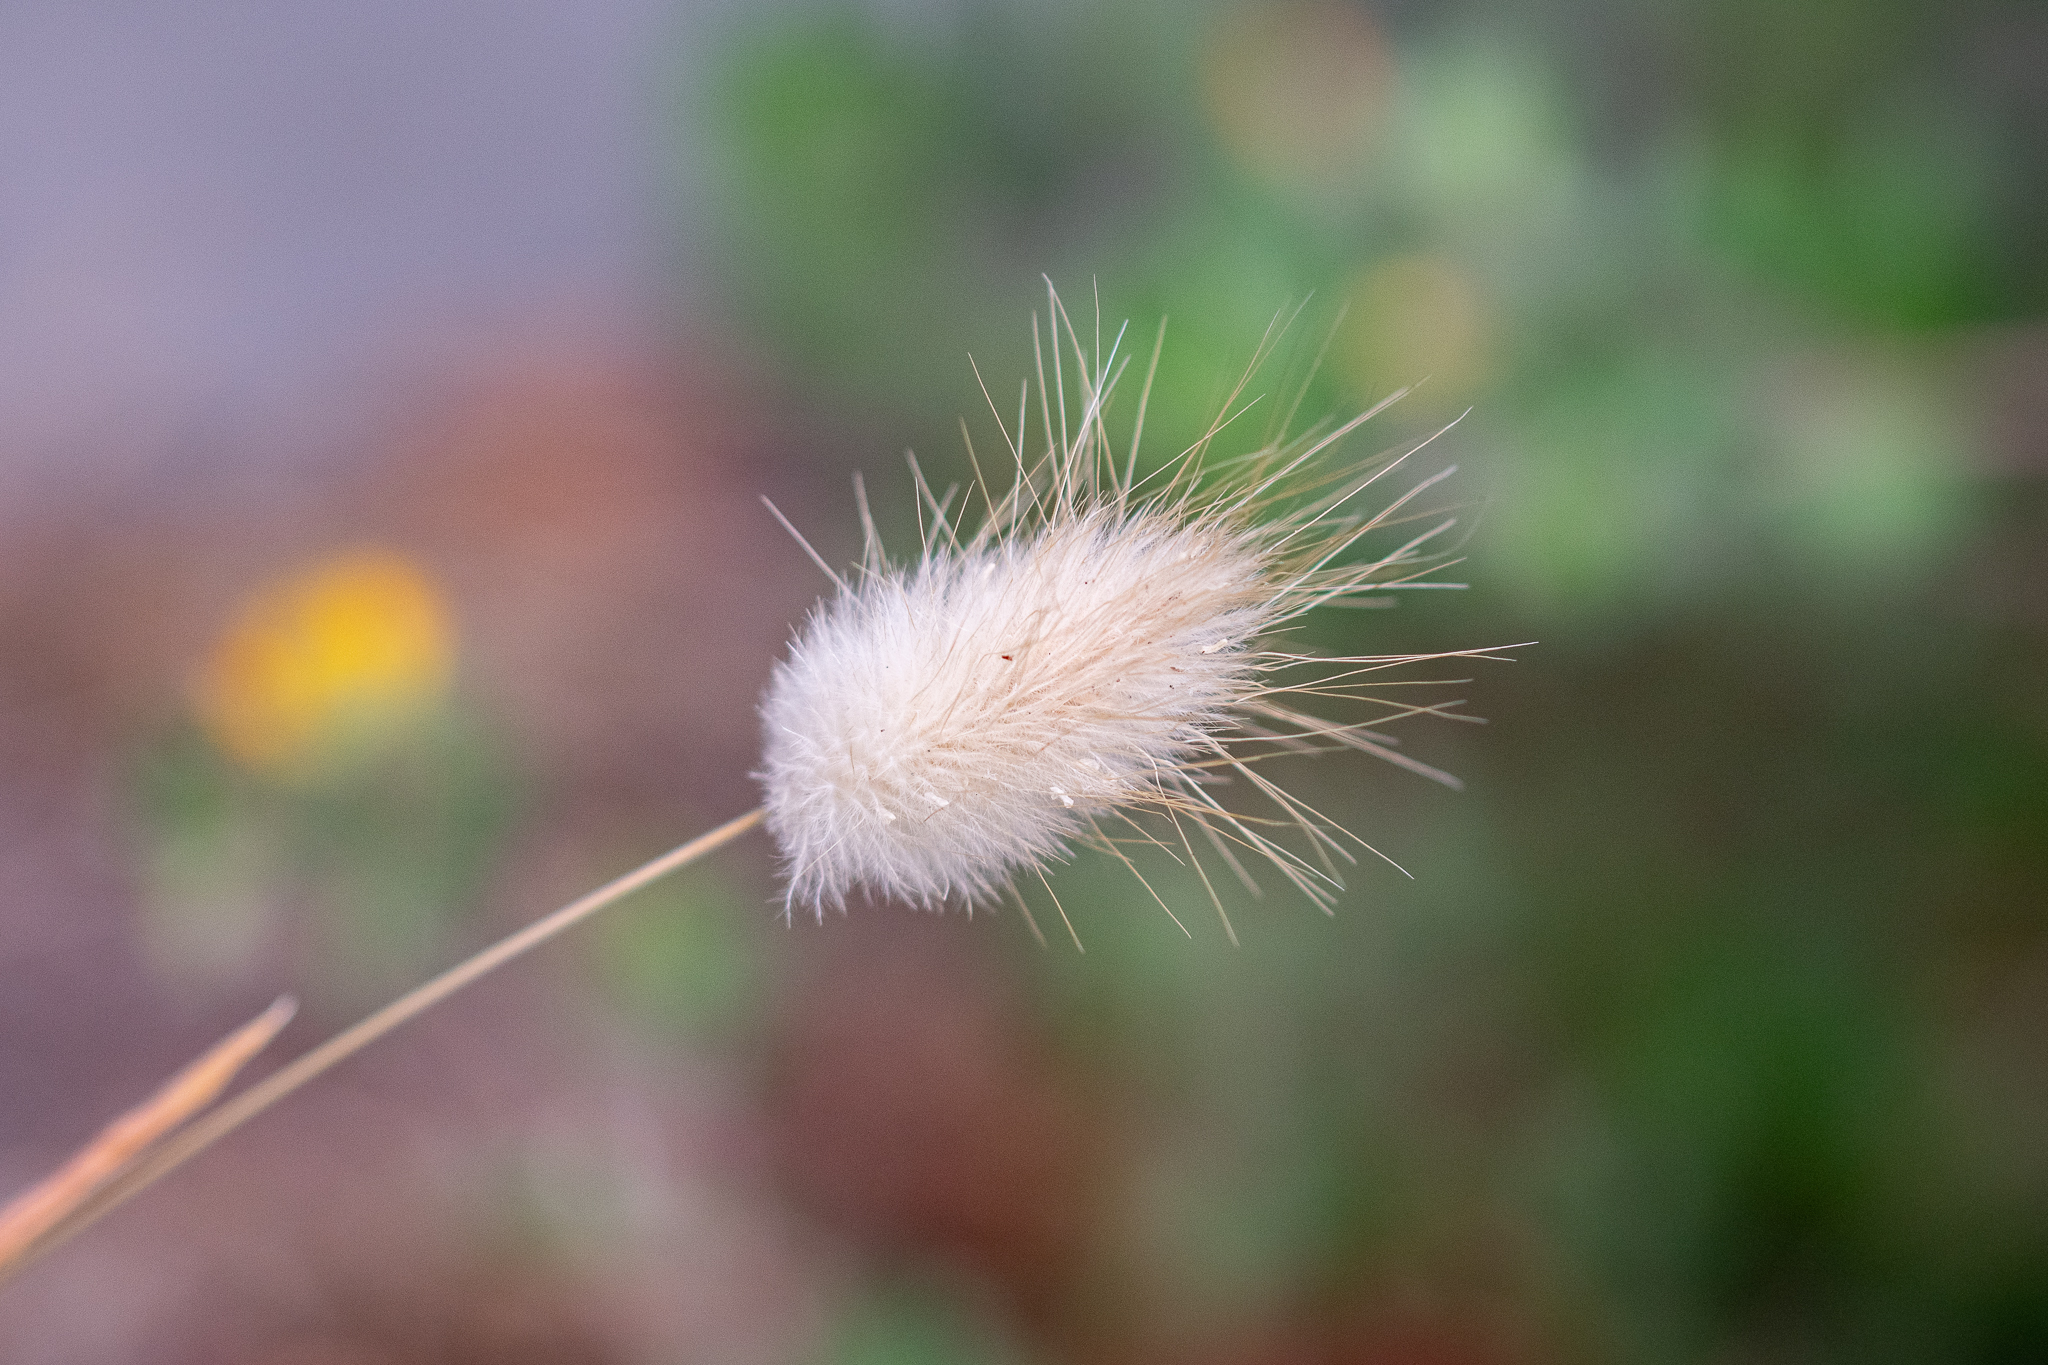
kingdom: Plantae
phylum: Tracheophyta
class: Liliopsida
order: Poales
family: Poaceae
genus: Lagurus
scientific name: Lagurus ovatus
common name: Hare's-tail
